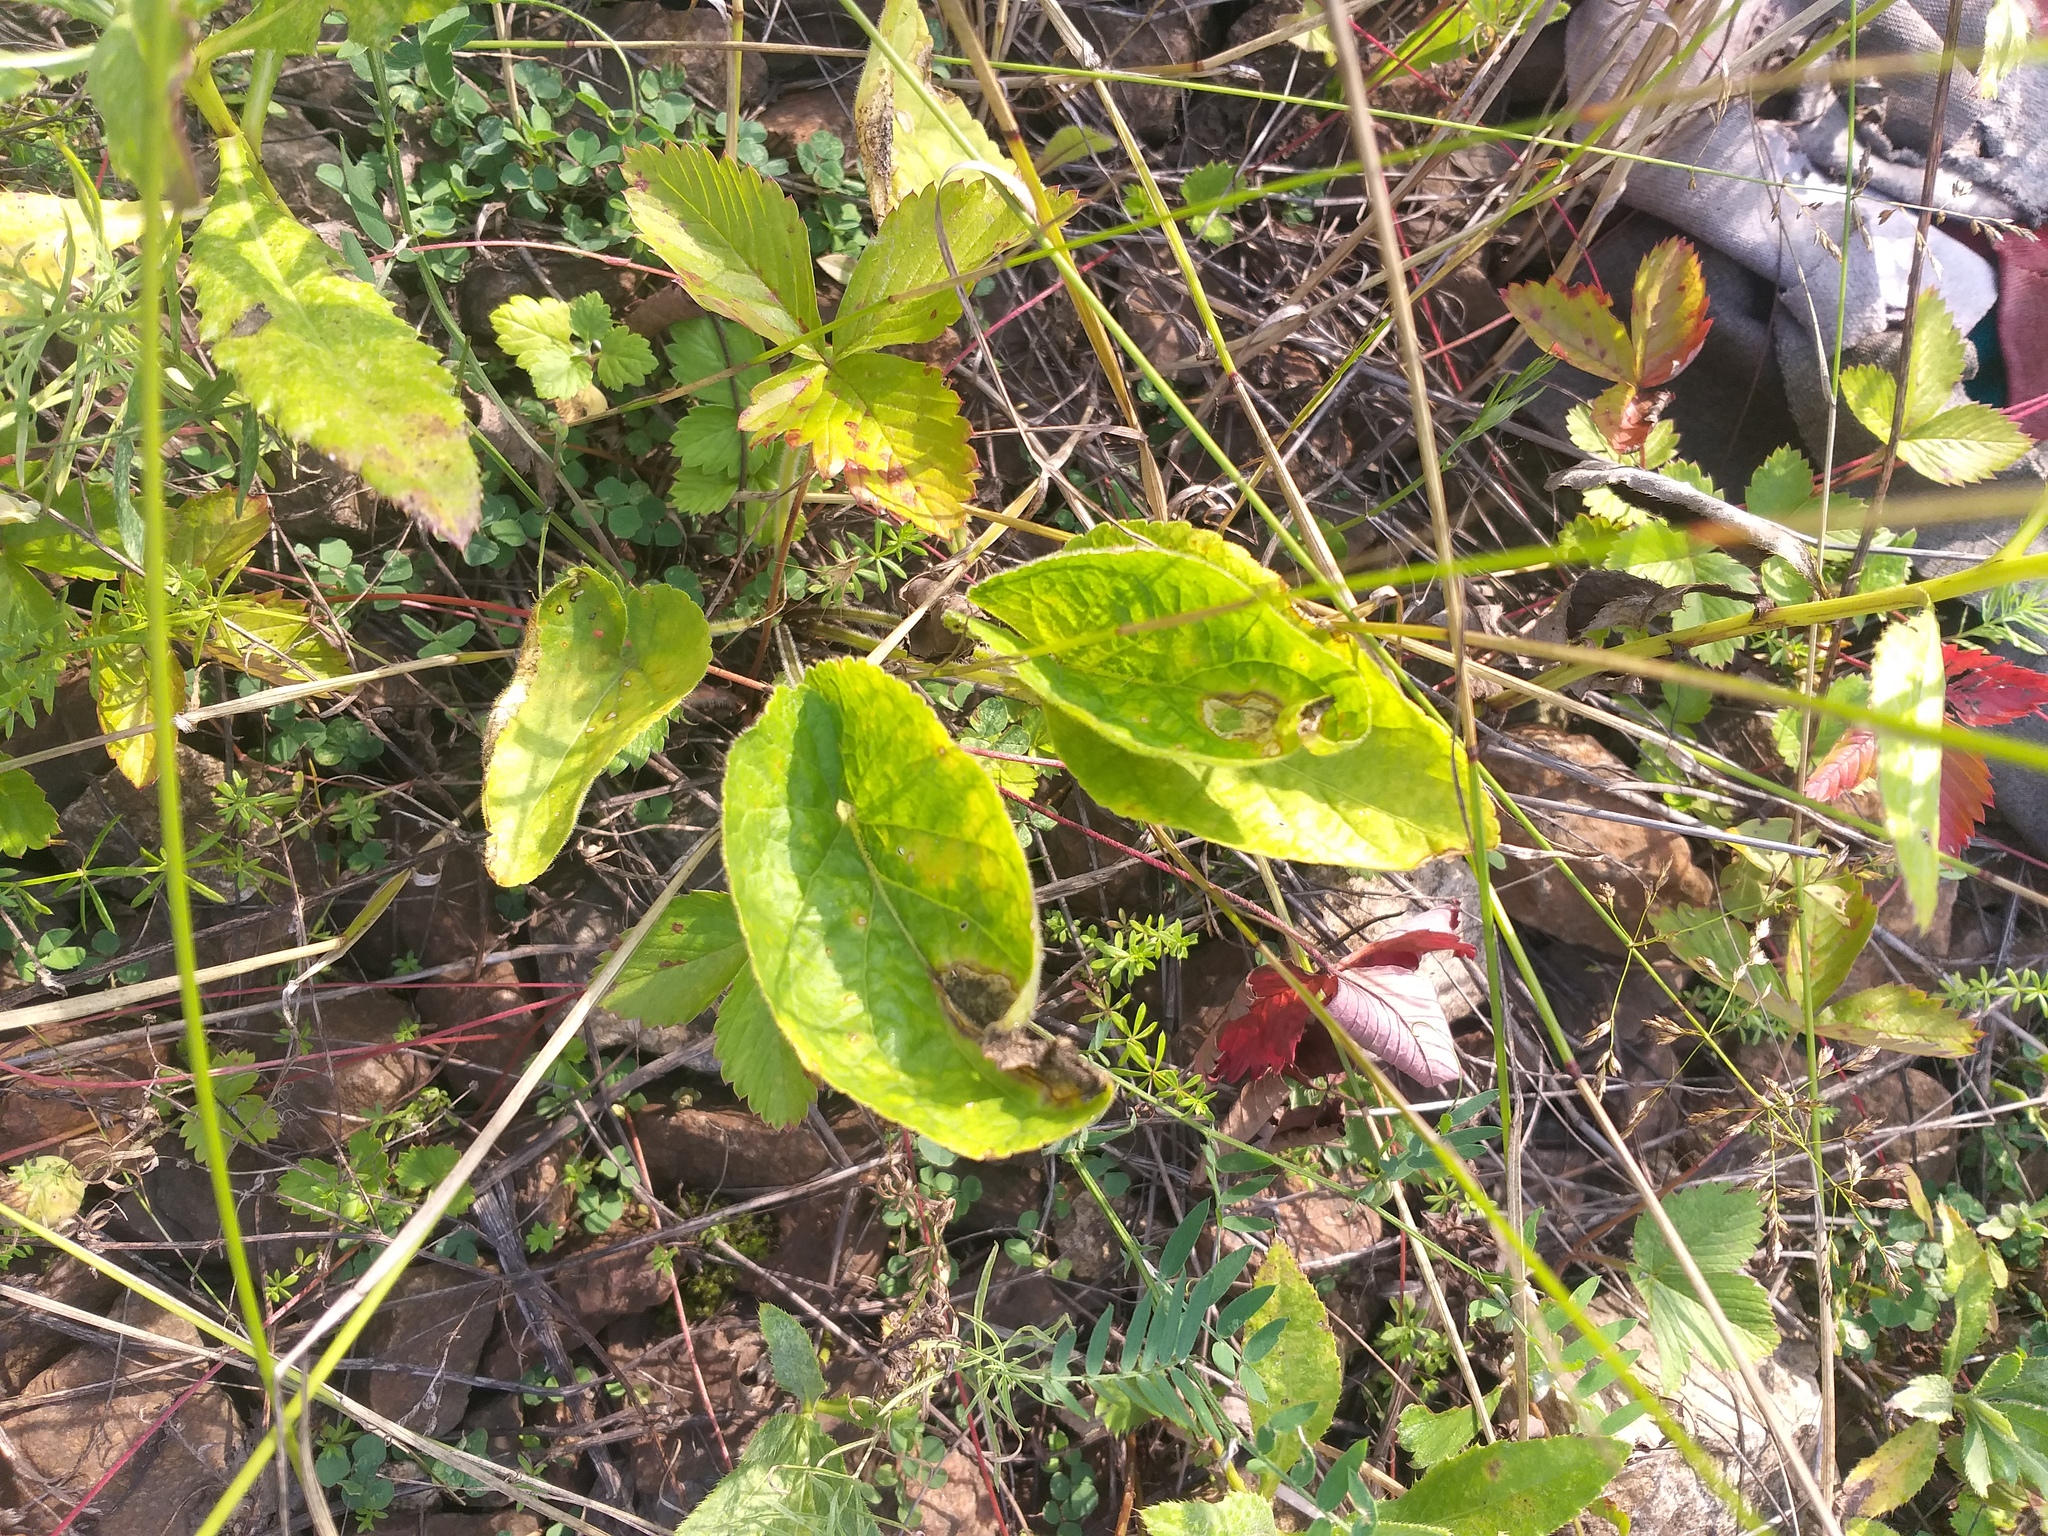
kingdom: Plantae
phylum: Tracheophyta
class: Magnoliopsida
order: Malpighiales
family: Violaceae
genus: Viola
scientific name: Viola hirta
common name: Hairy violet
